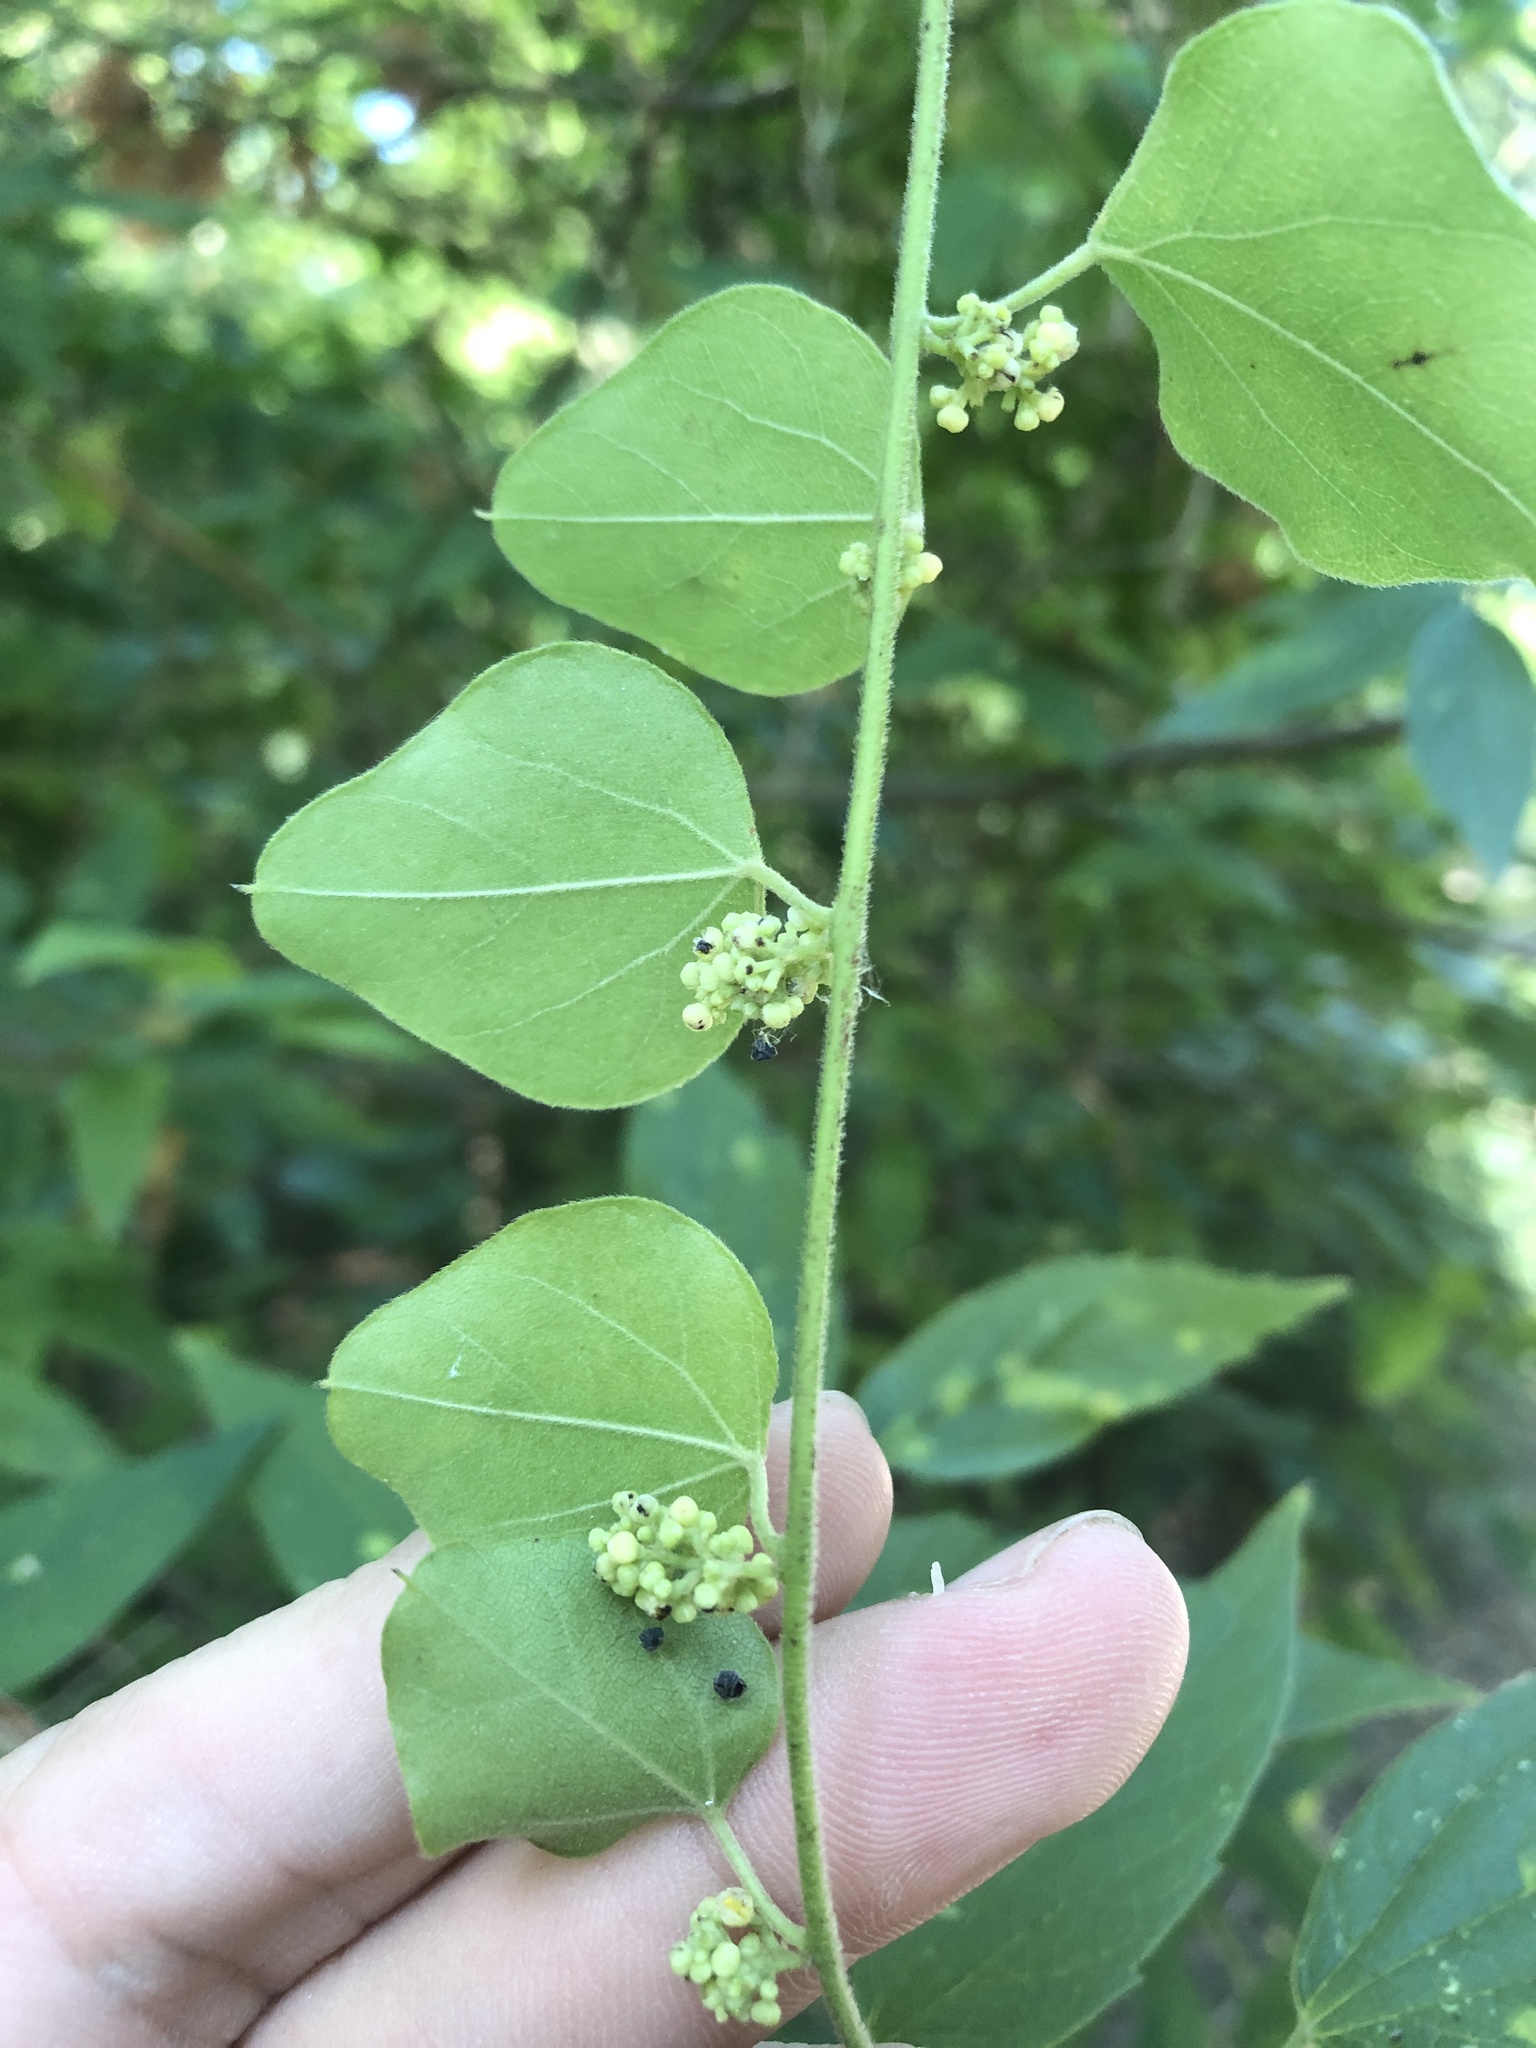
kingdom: Plantae
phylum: Tracheophyta
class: Magnoliopsida
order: Ranunculales
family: Menispermaceae
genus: Cocculus
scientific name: Cocculus carolinus
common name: Carolina moonseed
